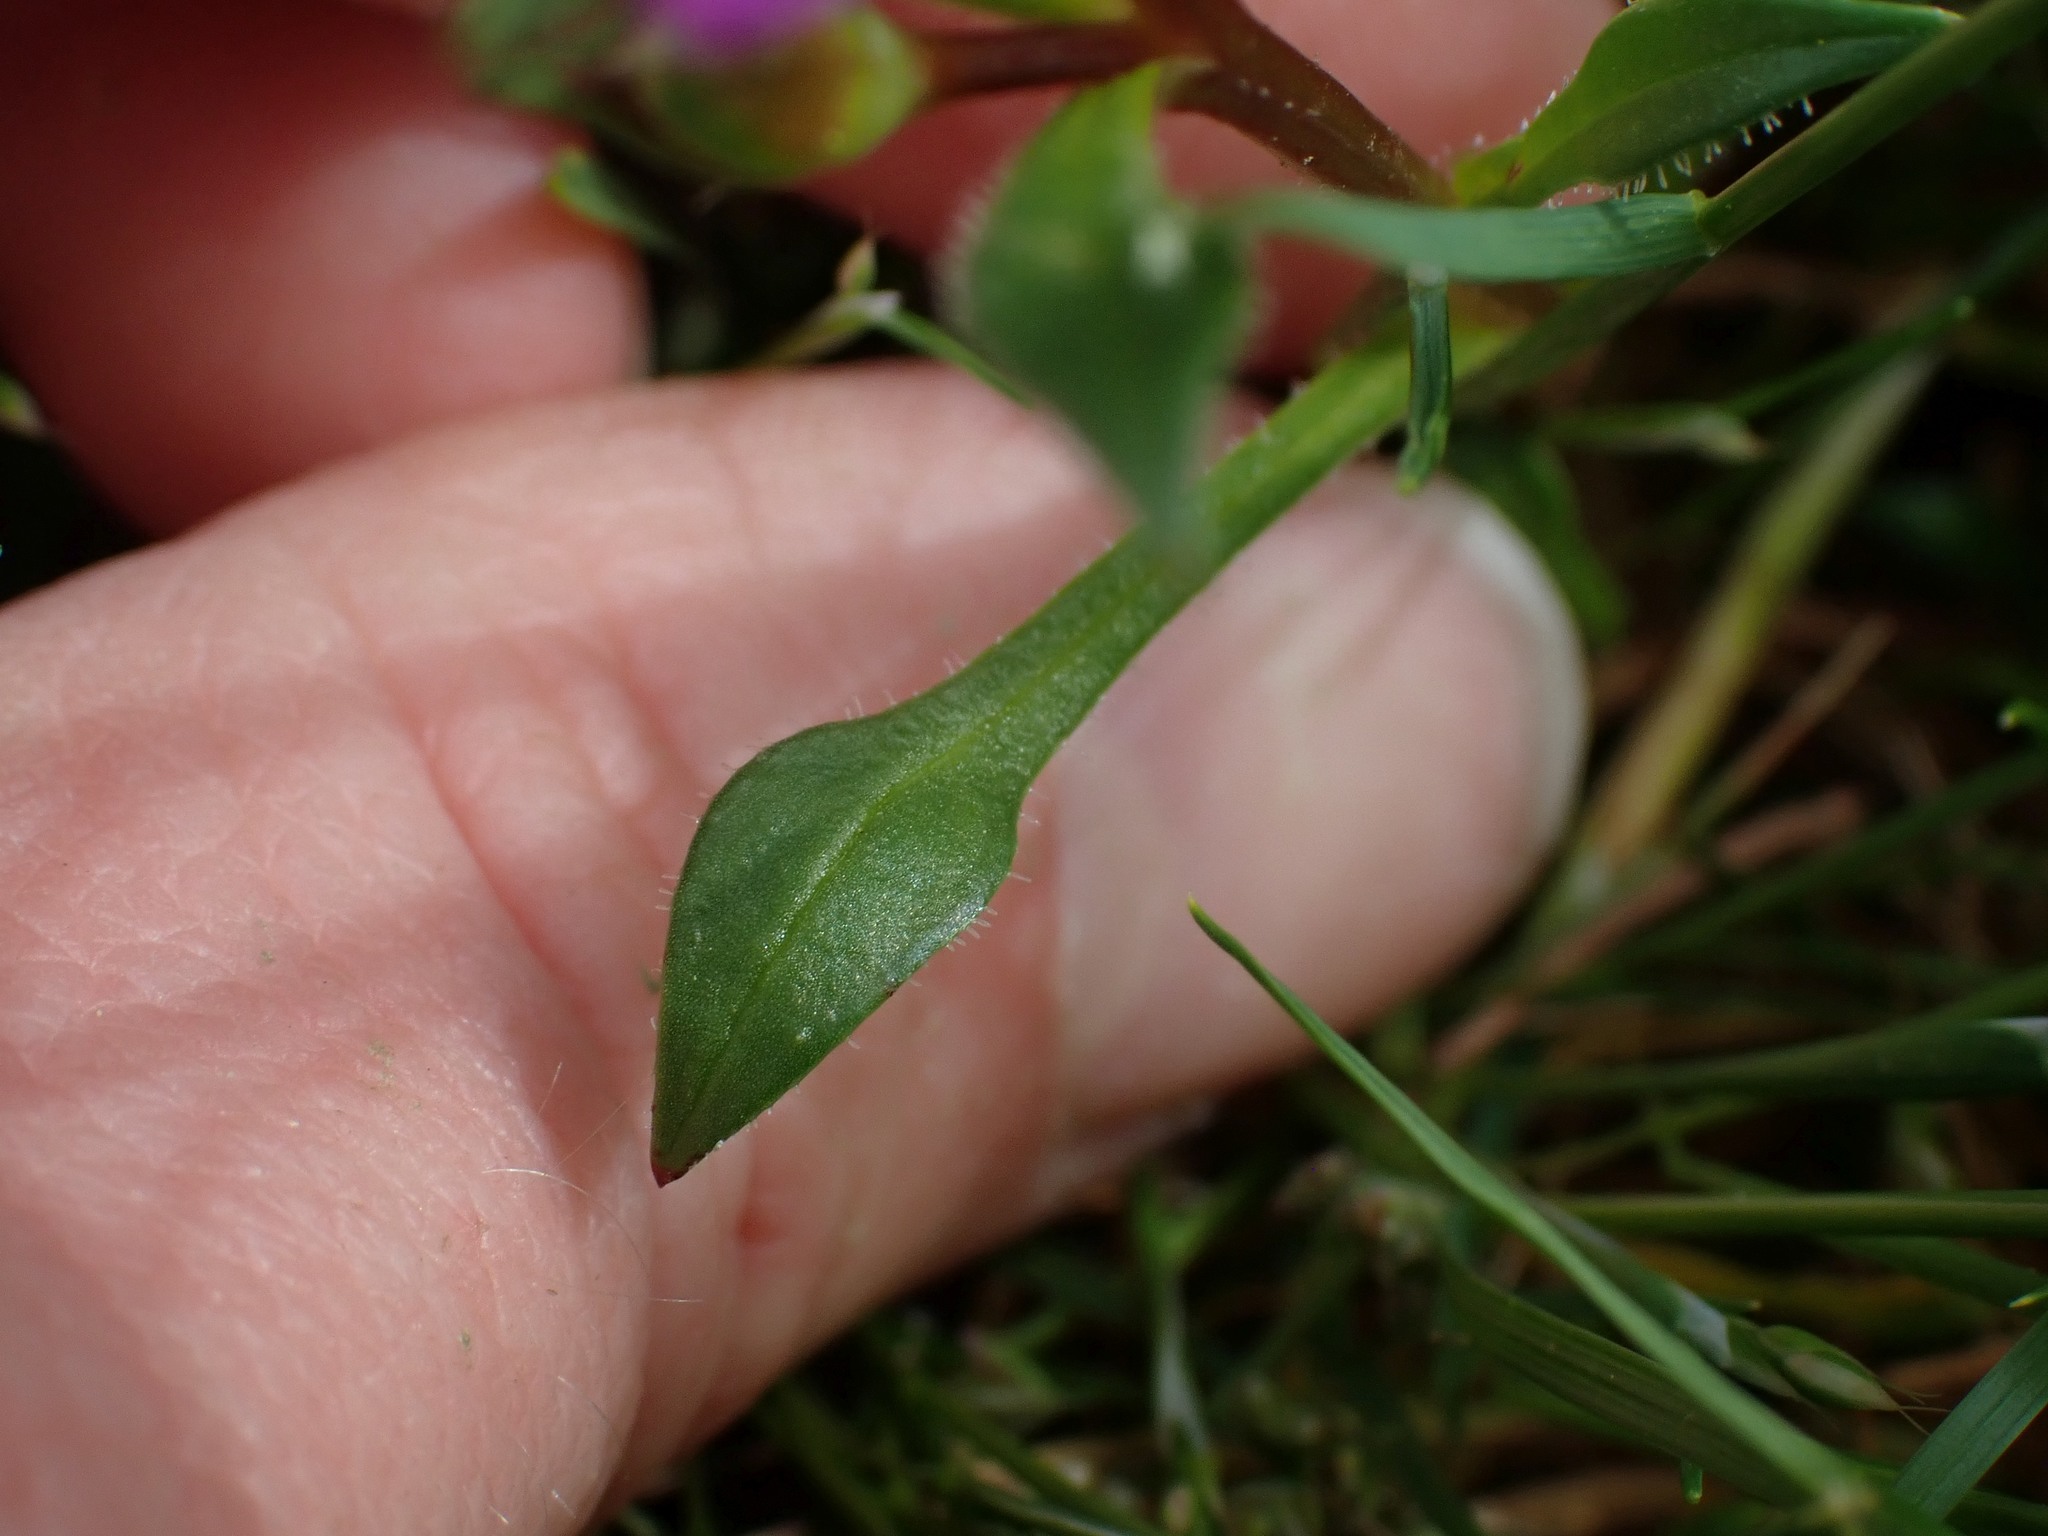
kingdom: Plantae
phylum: Tracheophyta
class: Magnoliopsida
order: Caryophyllales
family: Montiaceae
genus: Calandrinia
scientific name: Calandrinia menziesii
